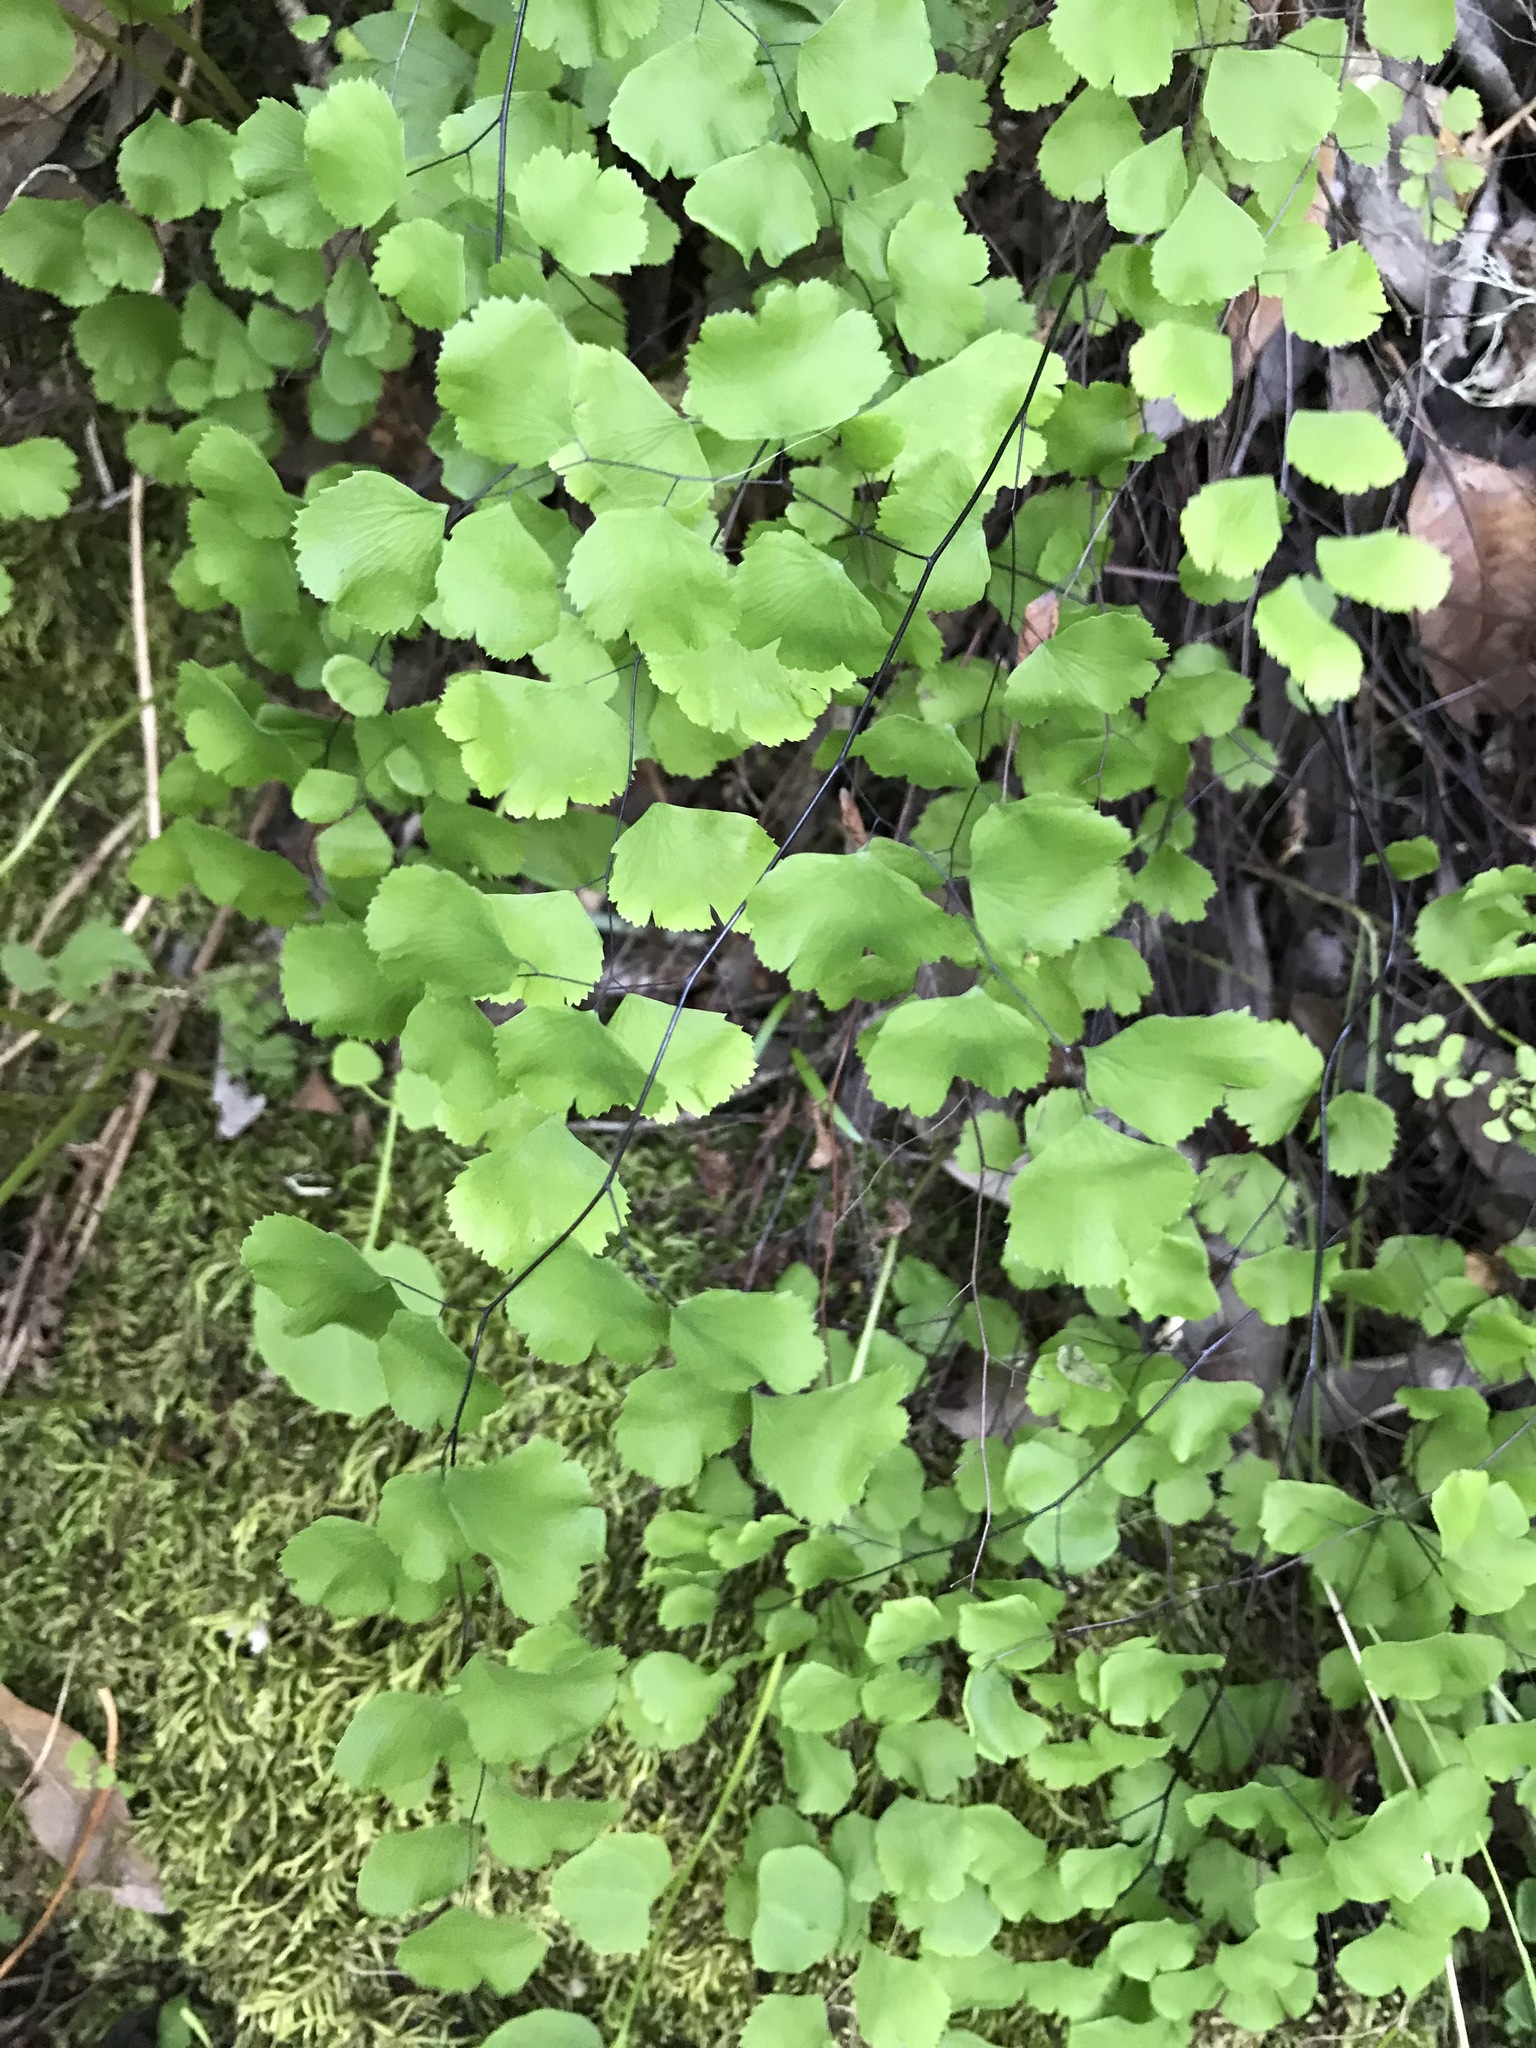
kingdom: Plantae
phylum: Tracheophyta
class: Polypodiopsida
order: Polypodiales
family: Pteridaceae
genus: Adiantum
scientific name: Adiantum jordanii
